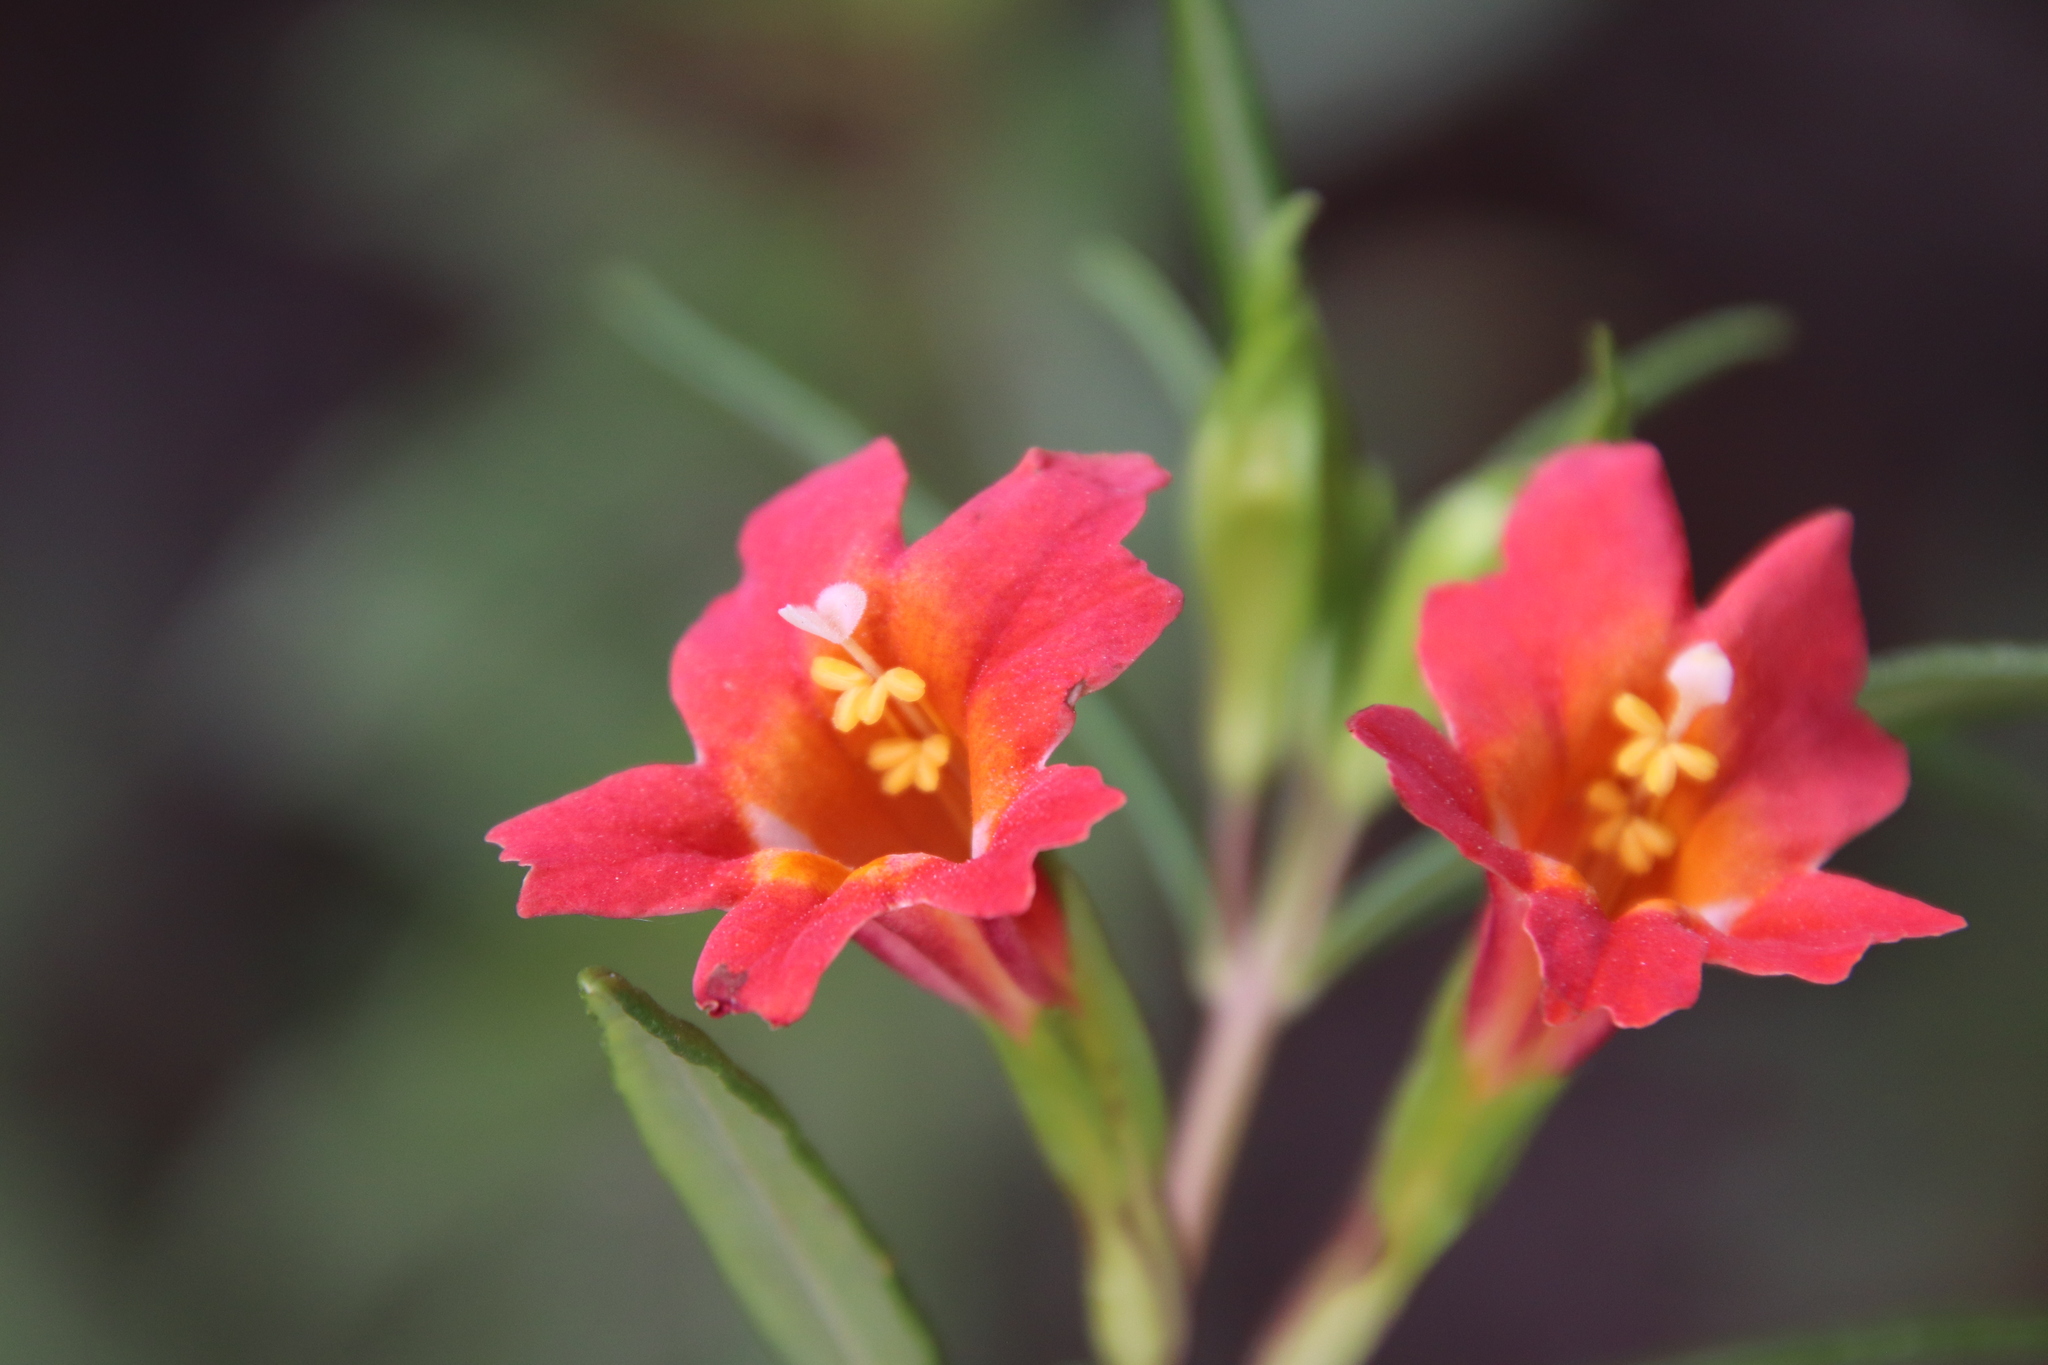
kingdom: Plantae
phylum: Tracheophyta
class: Magnoliopsida
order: Lamiales
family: Phrymaceae
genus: Diplacus
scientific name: Diplacus puniceus
